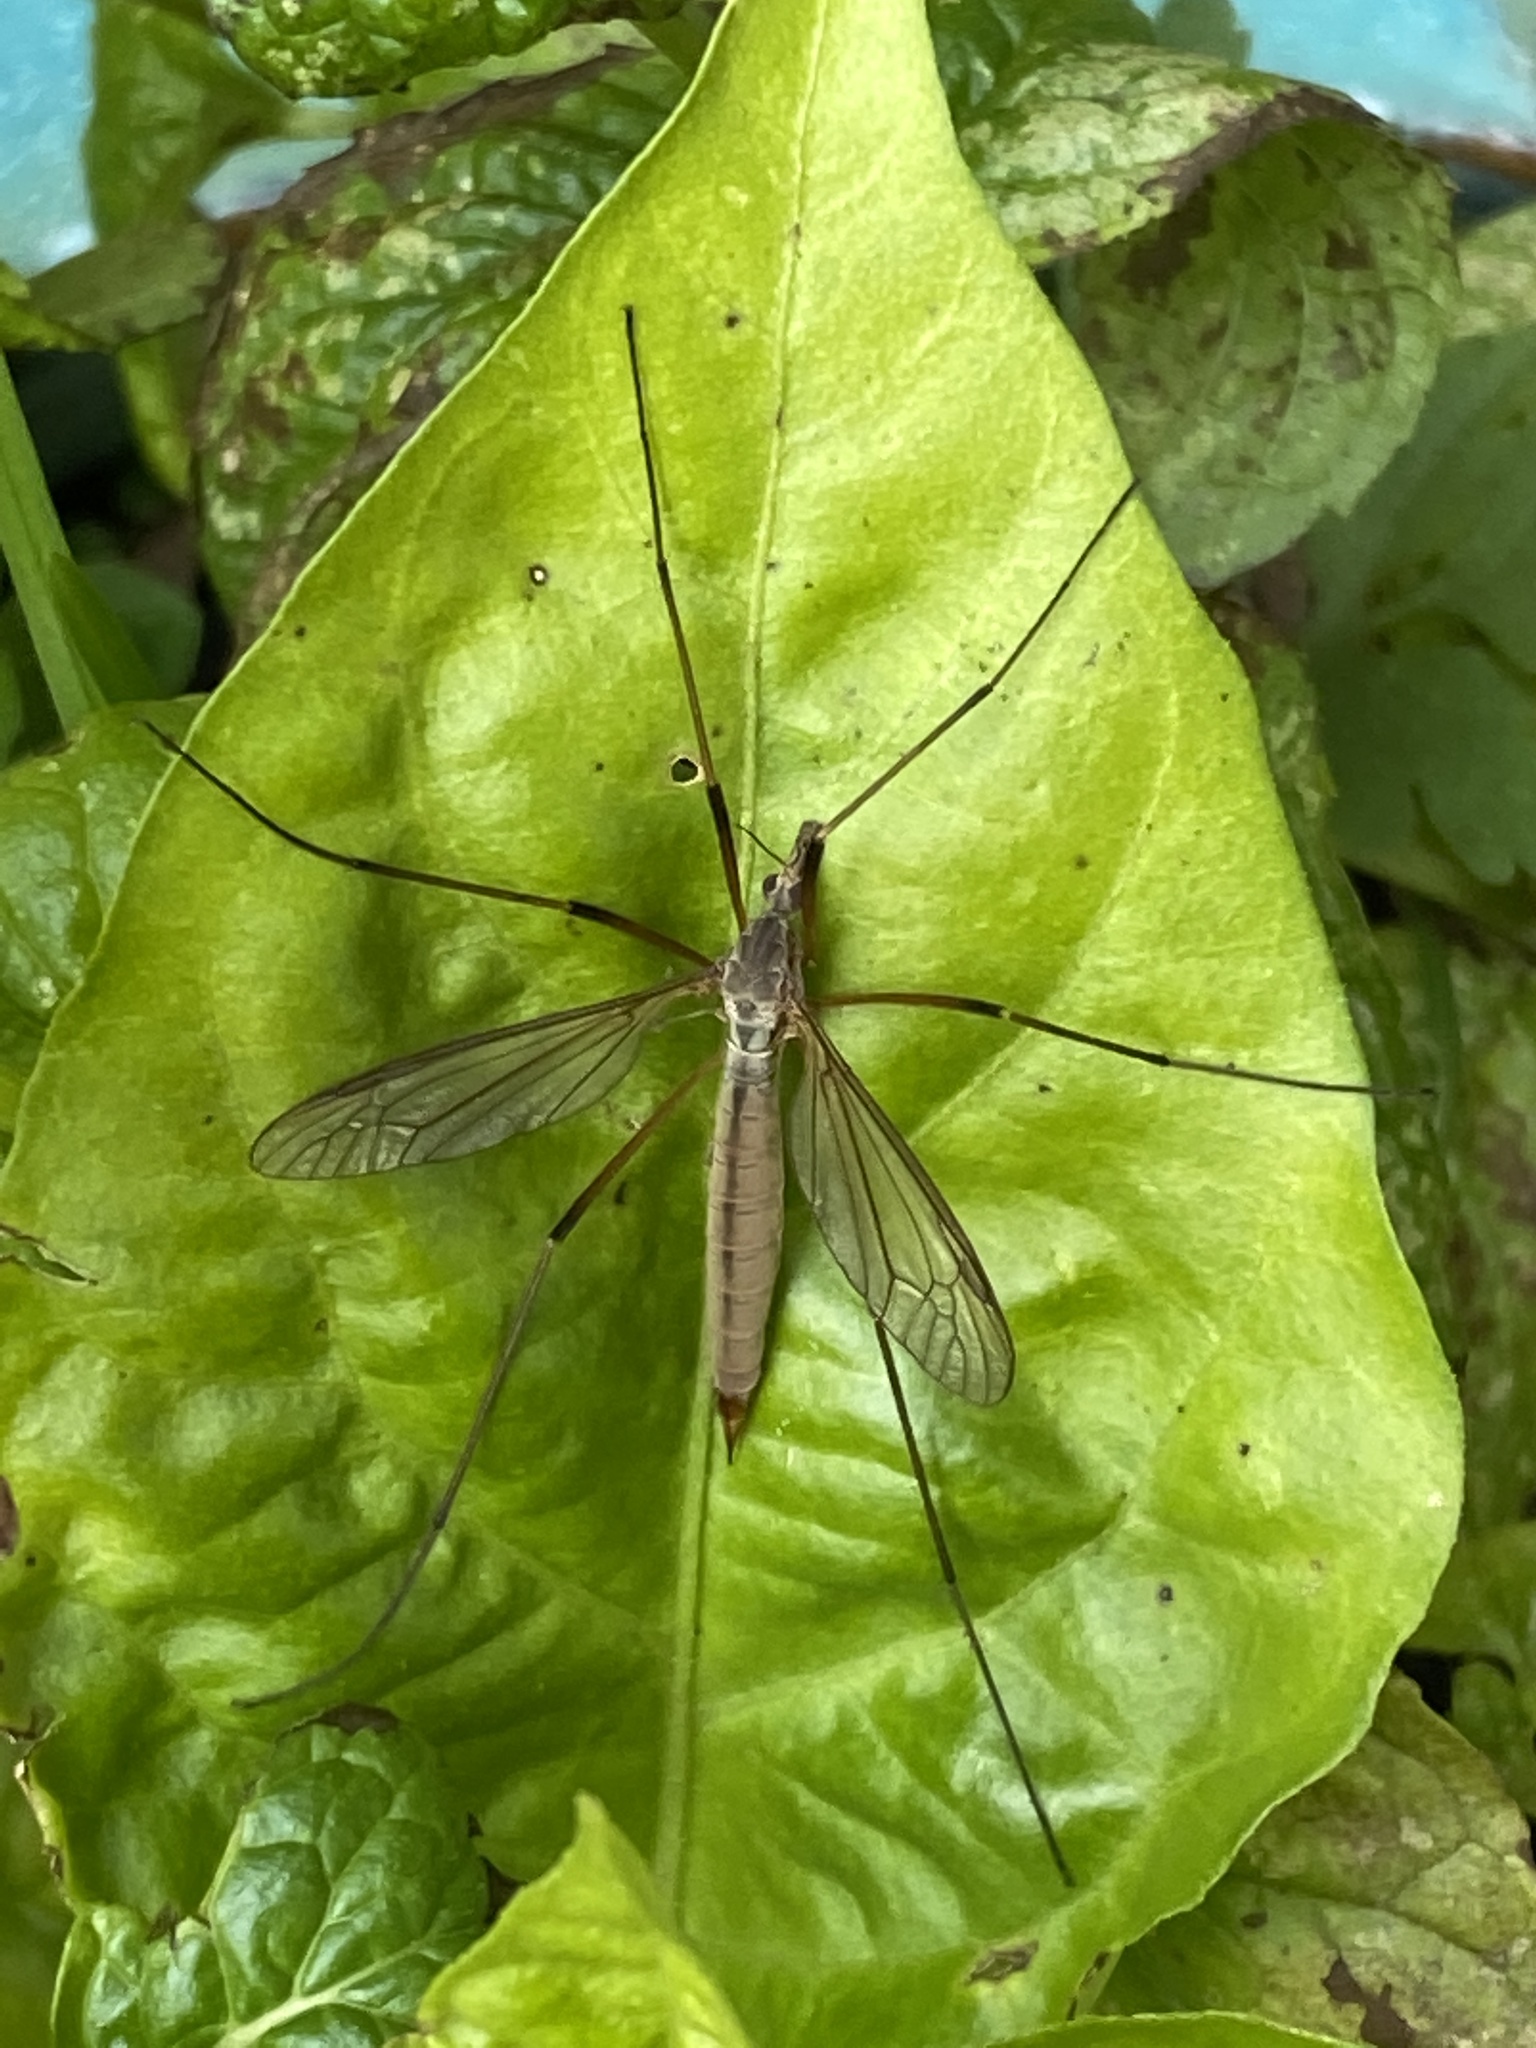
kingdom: Animalia
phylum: Arthropoda
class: Insecta
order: Diptera
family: Tipulidae
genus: Tipula
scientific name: Tipula paludosa
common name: European cranefly
